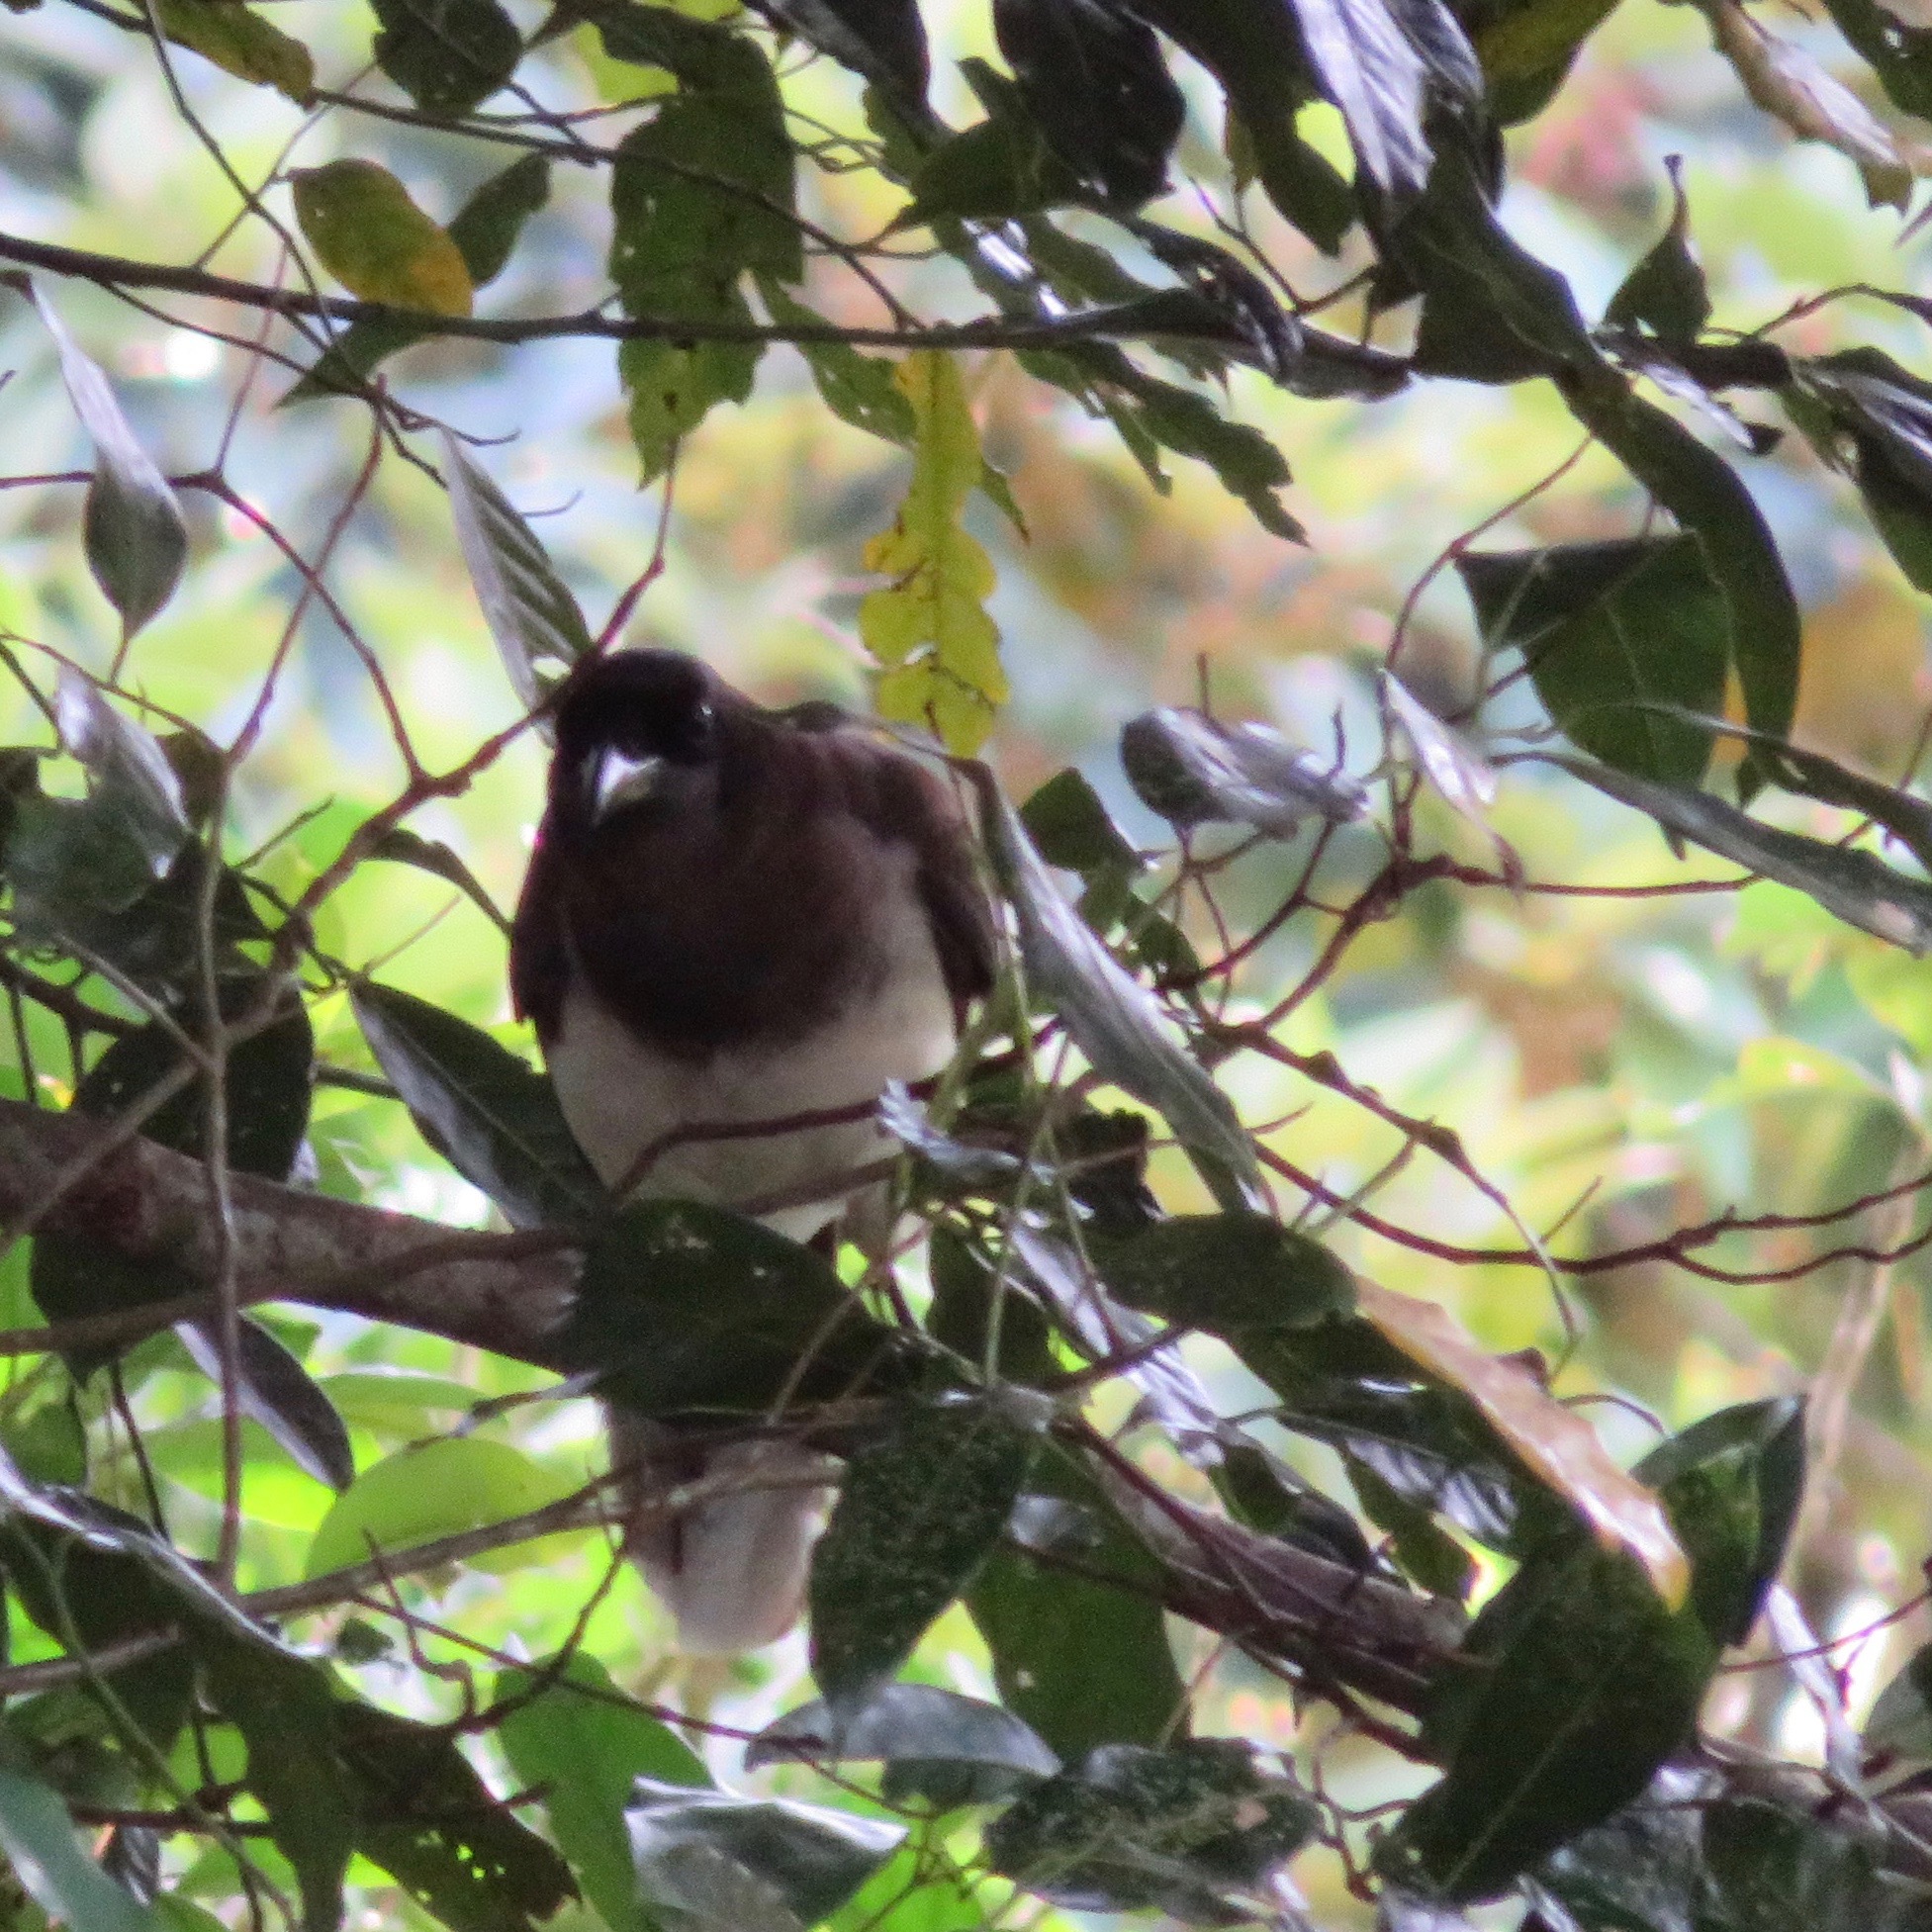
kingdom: Animalia
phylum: Chordata
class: Aves
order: Passeriformes
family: Corvidae
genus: Psilorhinus
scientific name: Psilorhinus morio
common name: Brown jay
